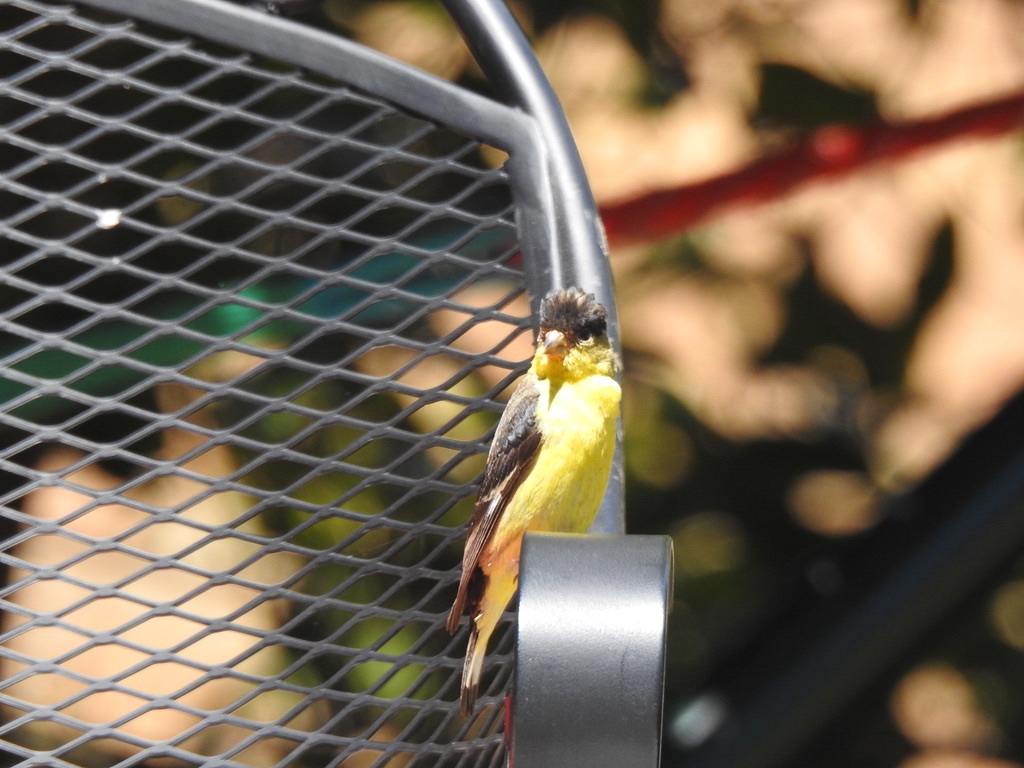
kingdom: Animalia
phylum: Chordata
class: Aves
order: Passeriformes
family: Fringillidae
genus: Spinus
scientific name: Spinus psaltria
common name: Lesser goldfinch
